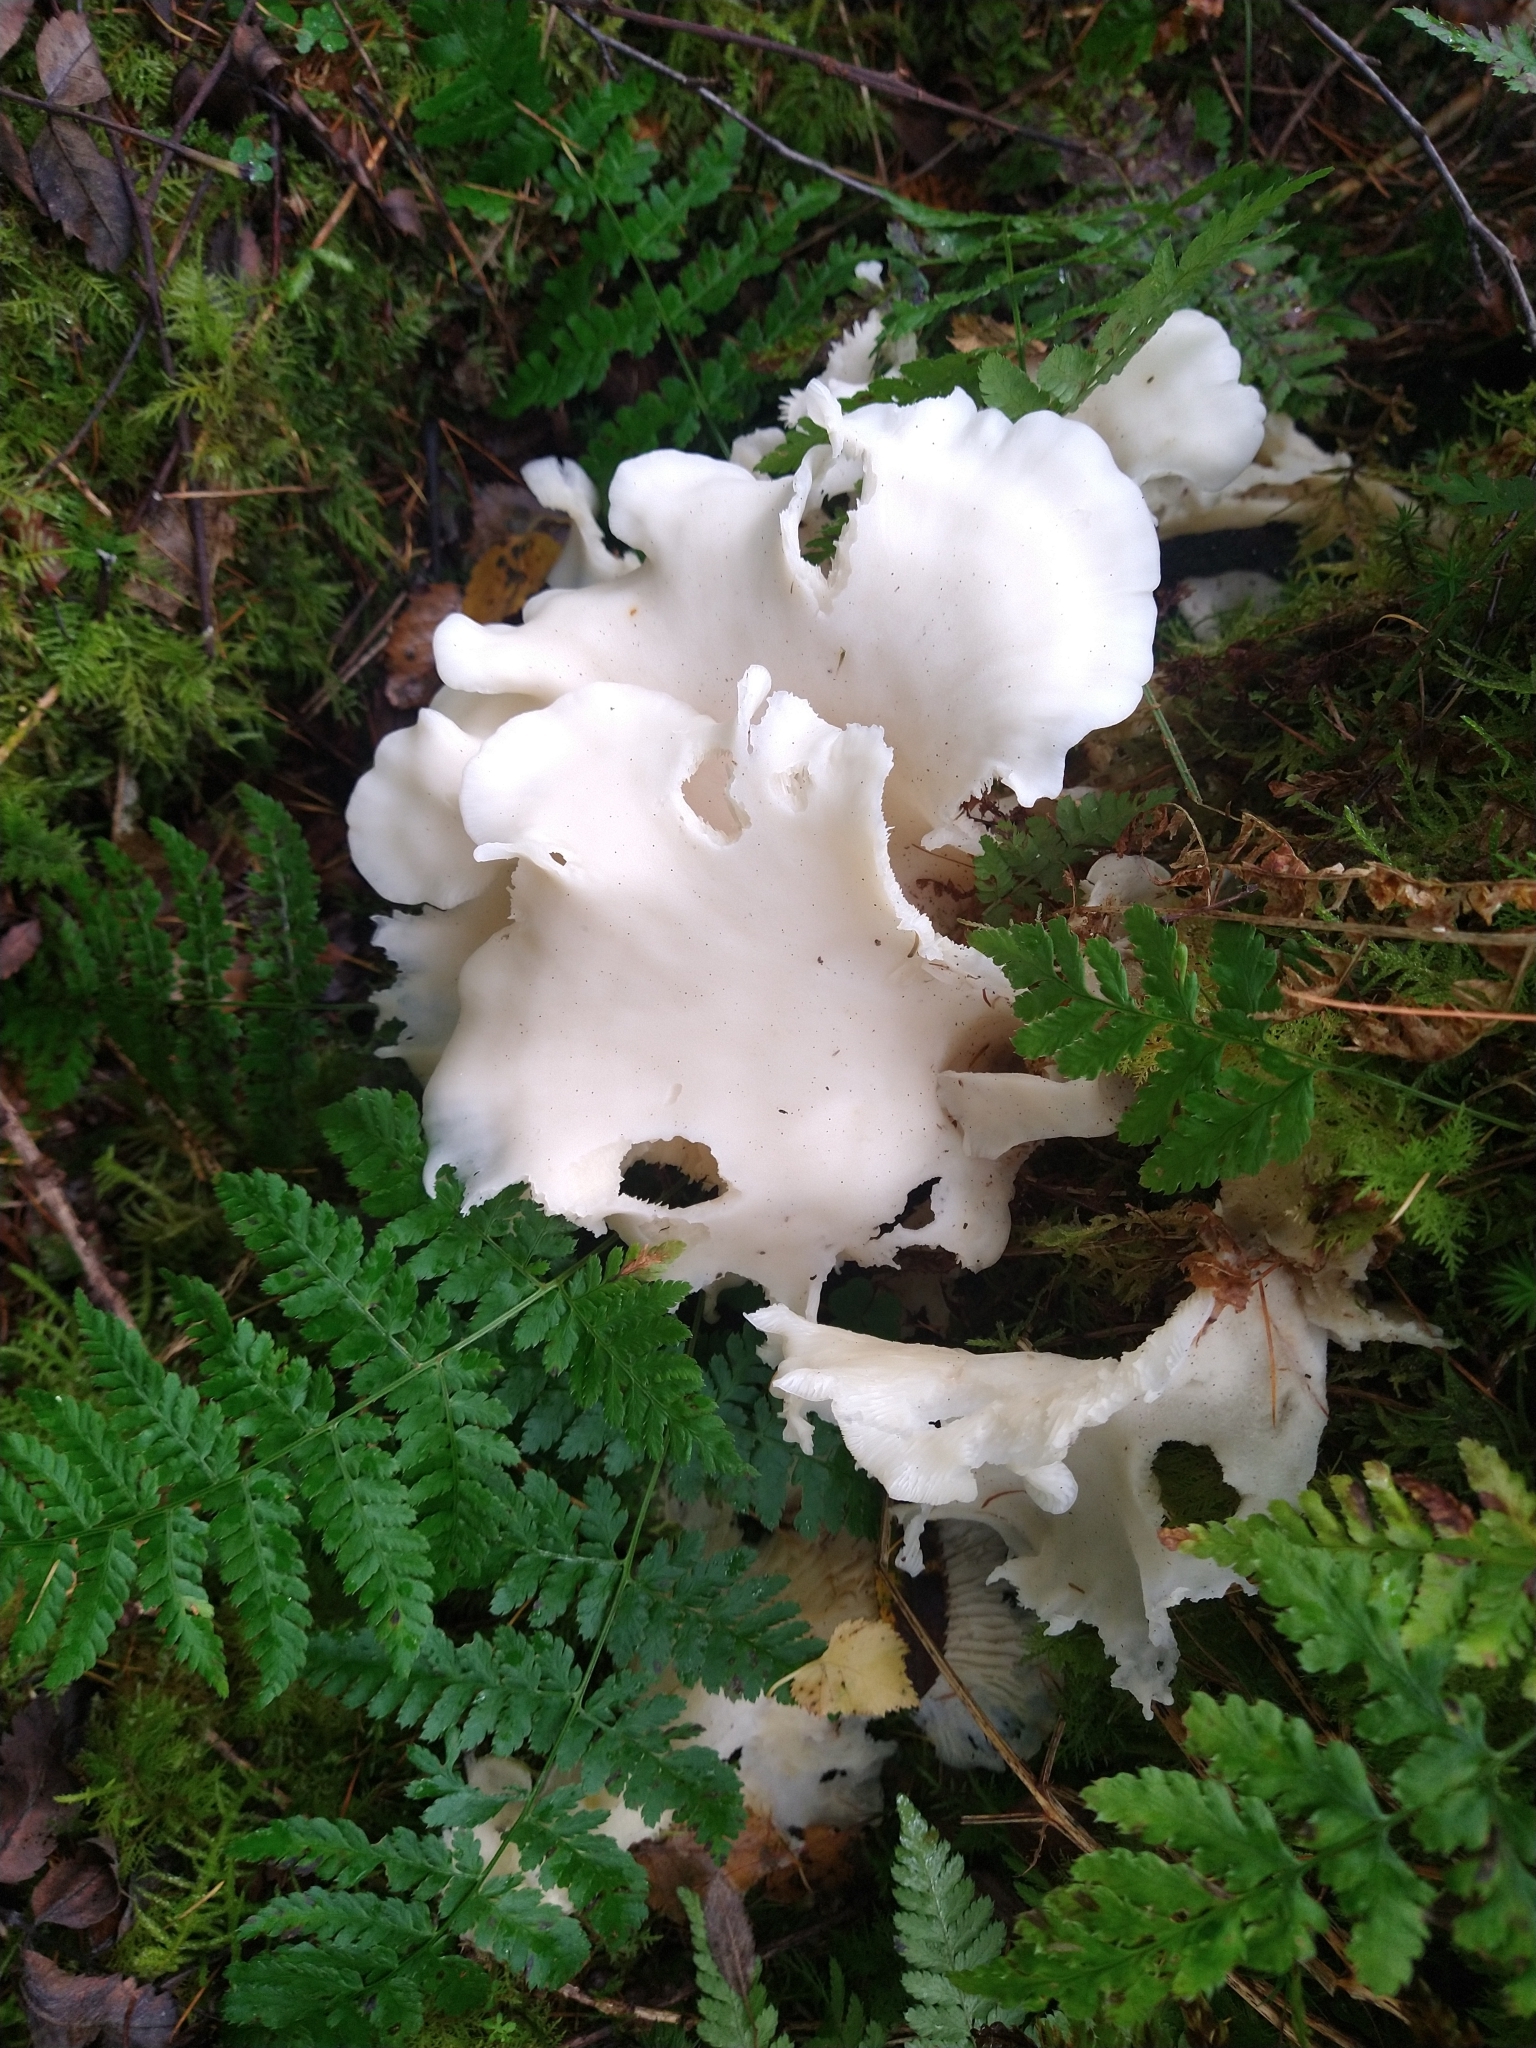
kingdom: Fungi
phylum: Basidiomycota
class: Agaricomycetes
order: Agaricales
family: Marasmiaceae
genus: Pleurocybella
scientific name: Pleurocybella porrigens
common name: Angel's wings
